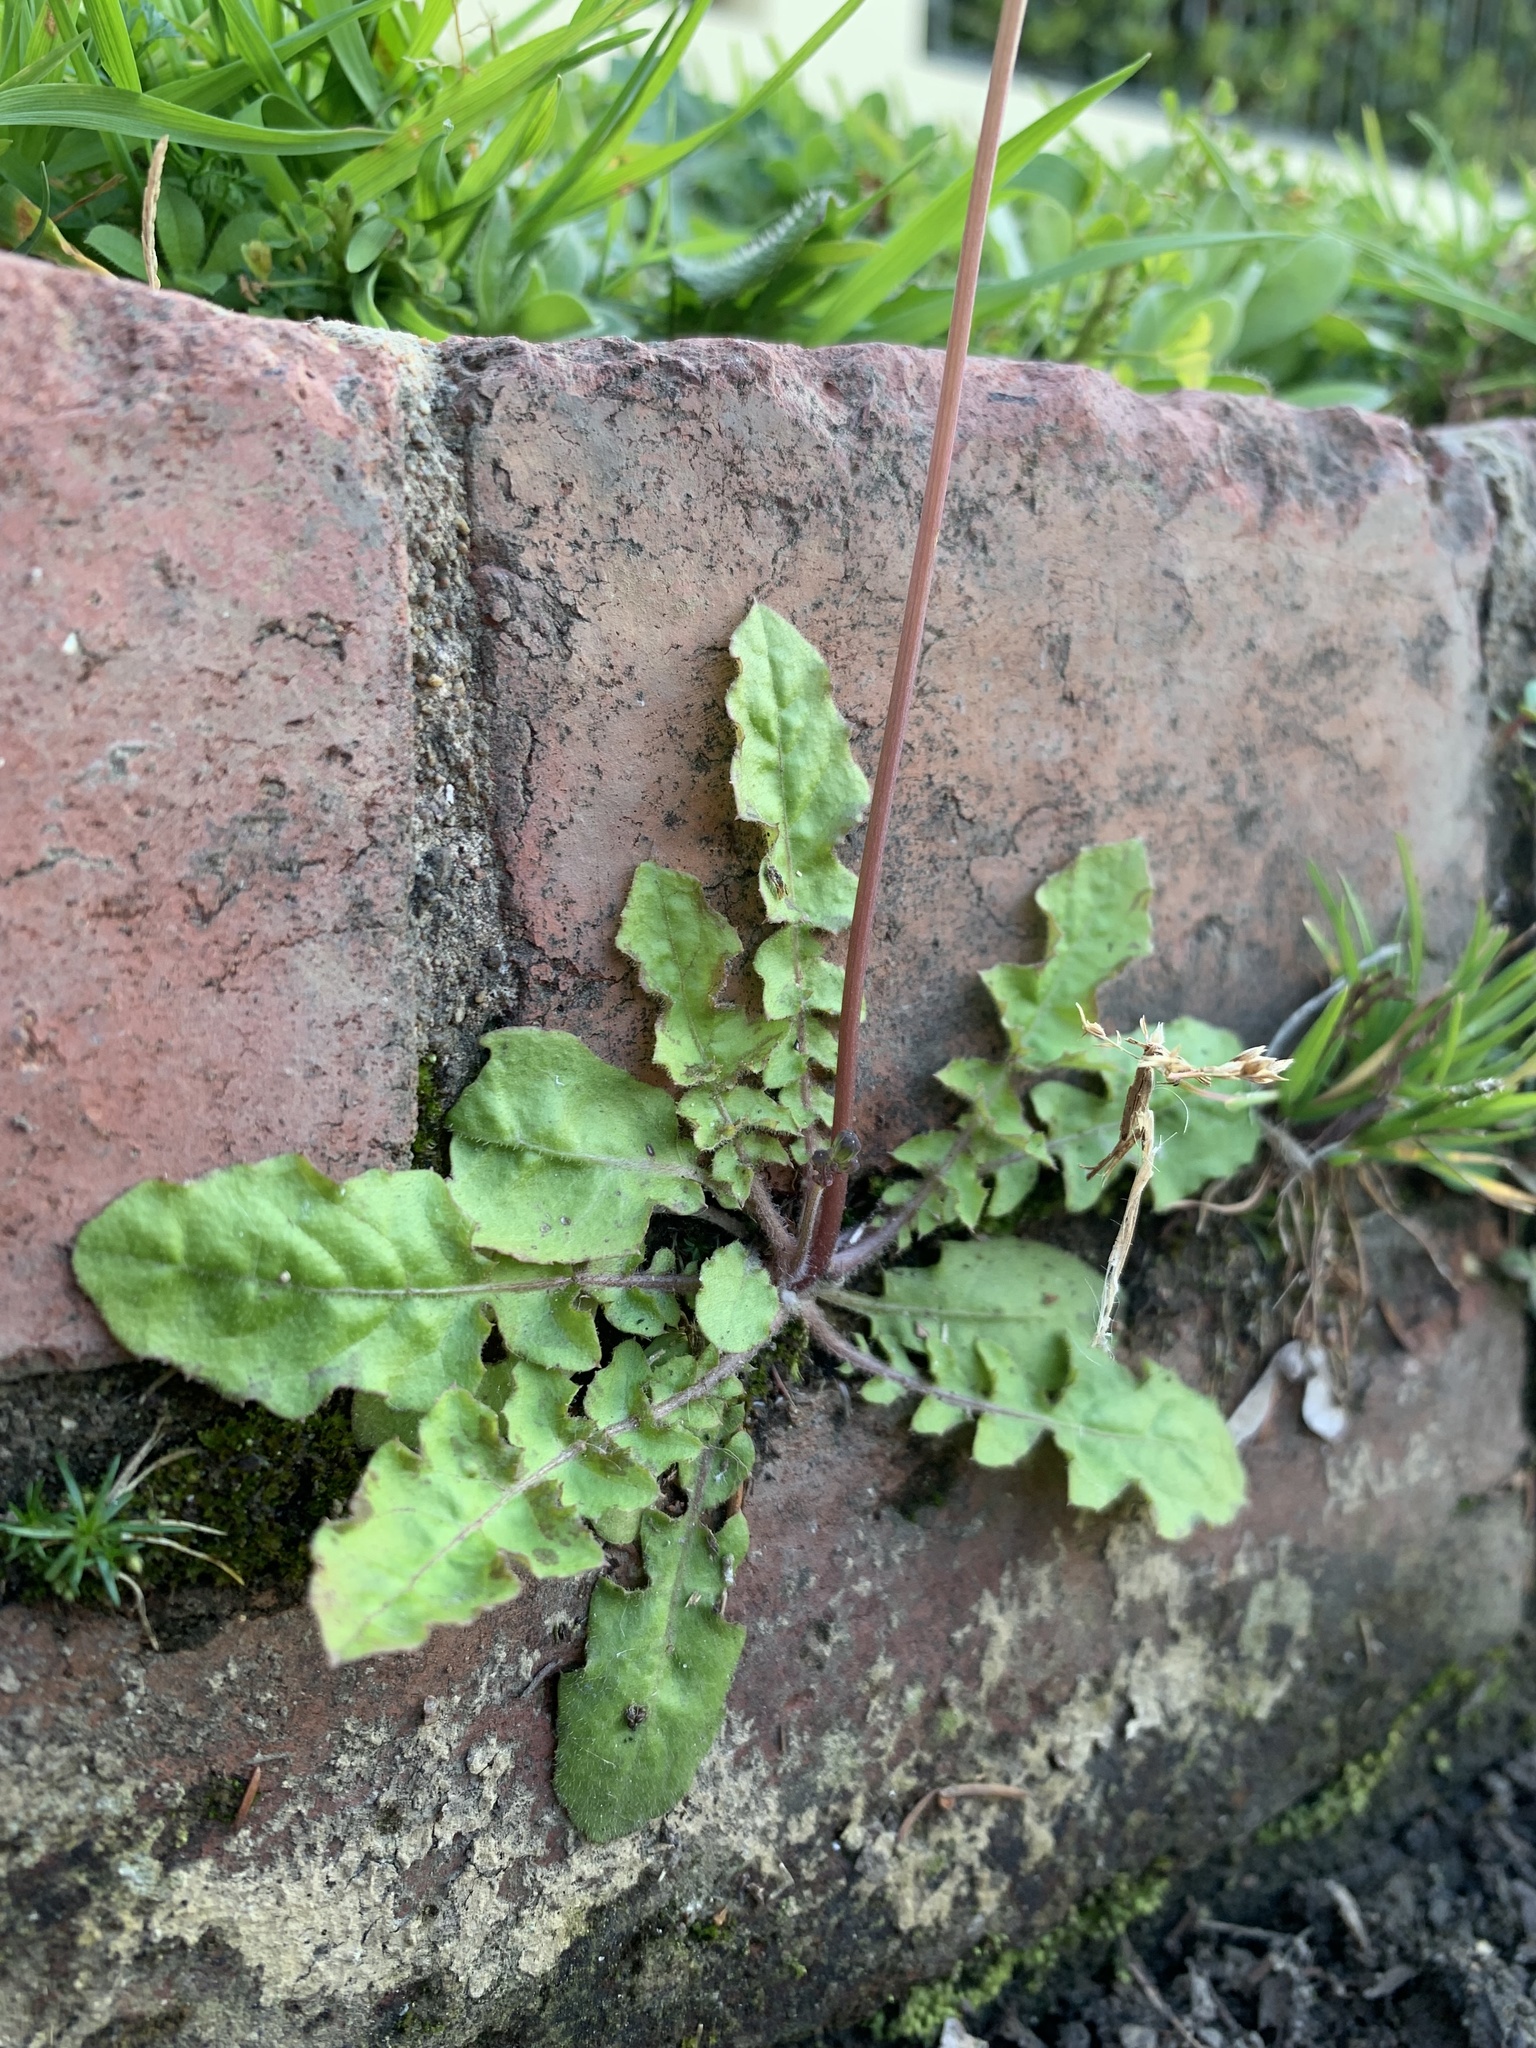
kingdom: Plantae
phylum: Tracheophyta
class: Magnoliopsida
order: Asterales
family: Asteraceae
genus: Youngia
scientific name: Youngia japonica
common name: Oriental false hawksbeard
